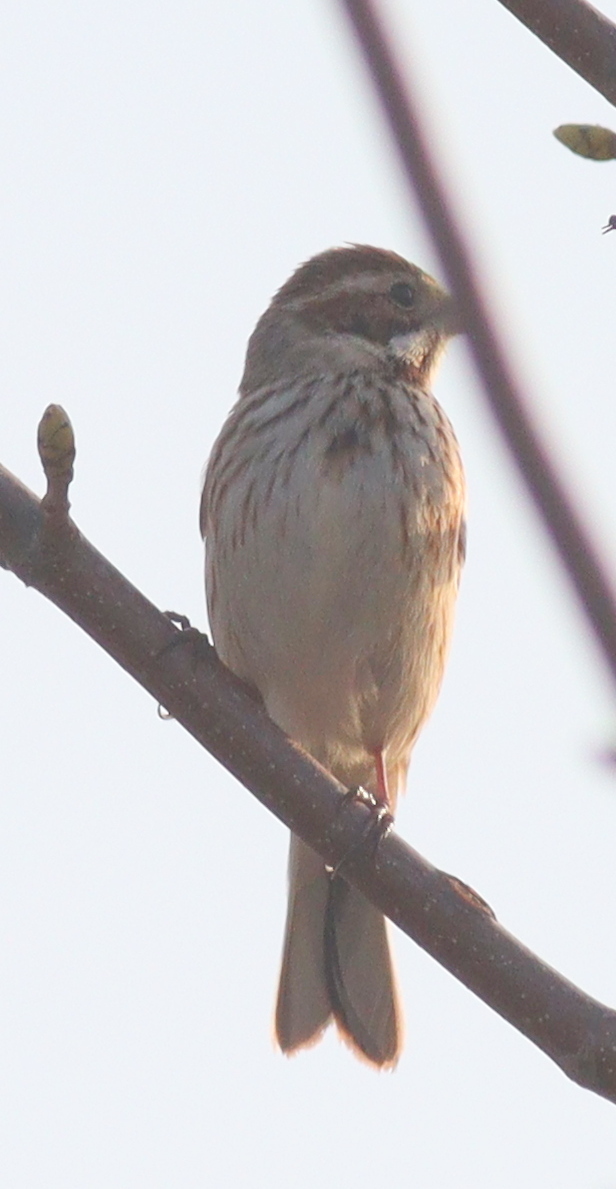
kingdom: Animalia
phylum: Chordata
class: Aves
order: Passeriformes
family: Emberizidae
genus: Emberiza
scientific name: Emberiza schoeniclus
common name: Reed bunting
